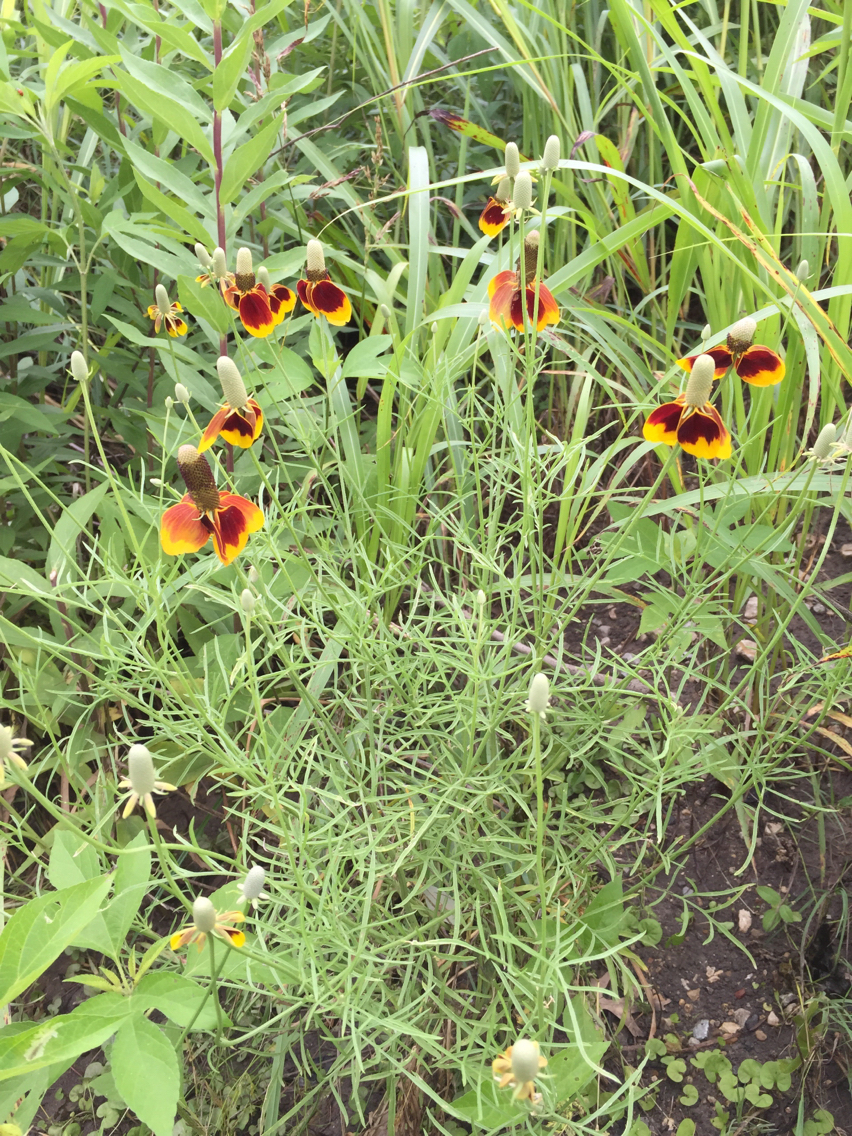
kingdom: Plantae
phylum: Tracheophyta
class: Magnoliopsida
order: Asterales
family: Asteraceae
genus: Ratibida
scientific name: Ratibida columnifera
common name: Prairie coneflower
